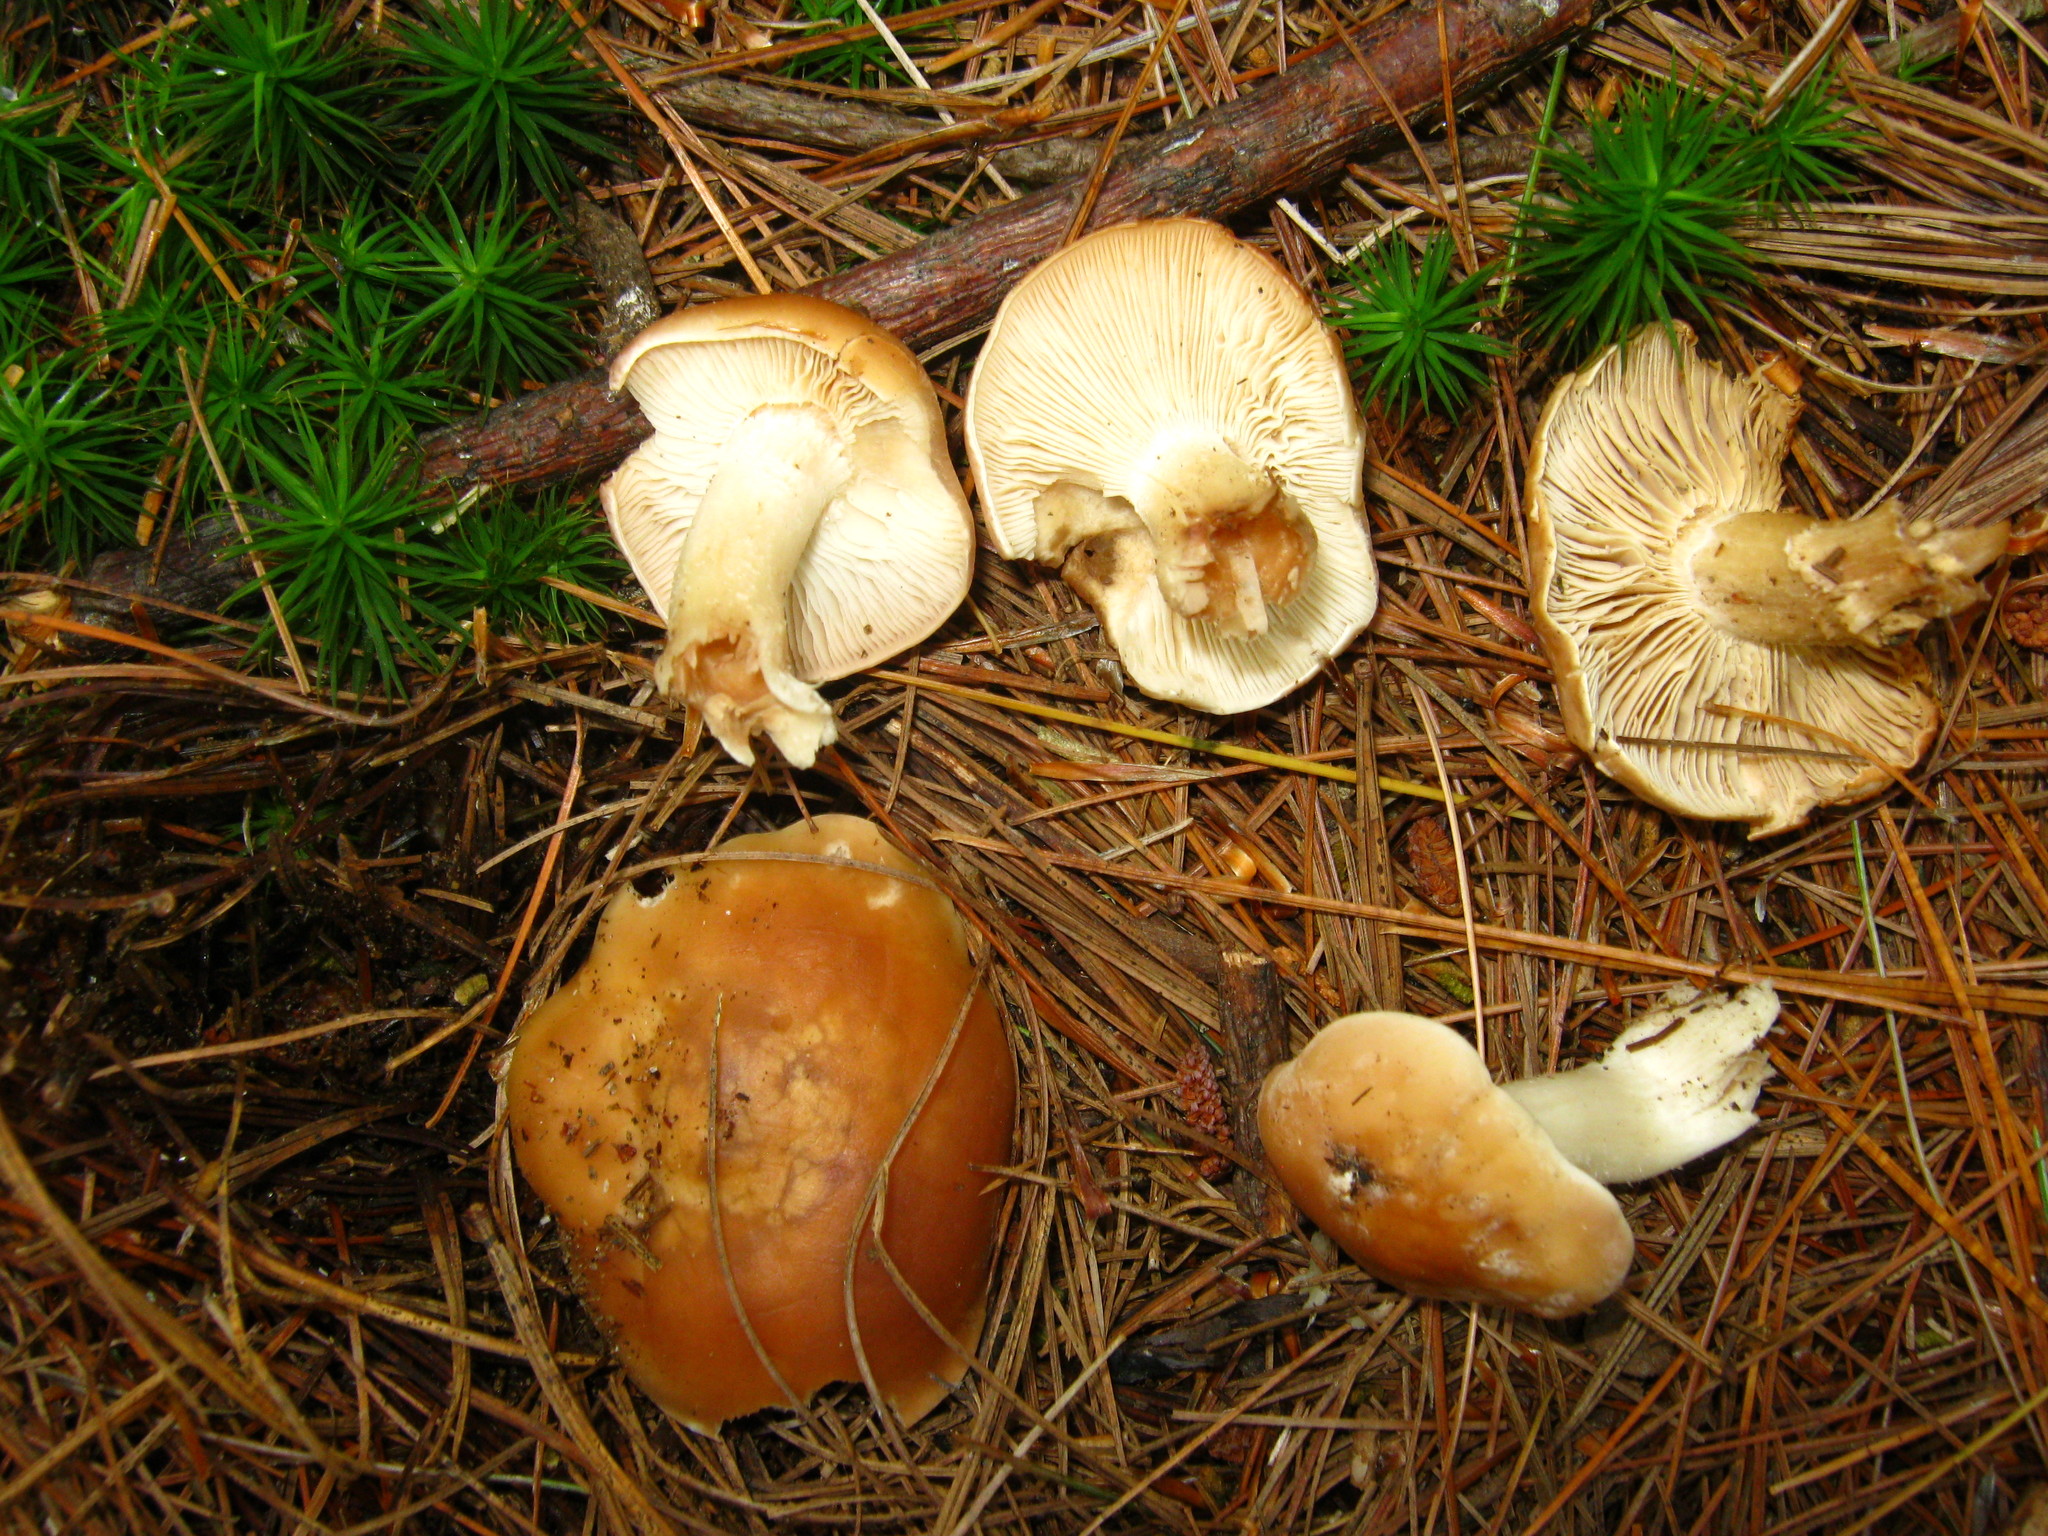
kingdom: Fungi
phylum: Basidiomycota
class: Agaricomycetes
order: Agaricales
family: Omphalotaceae
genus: Rhodocollybia
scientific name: Rhodocollybia butyracea
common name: Butter cap
